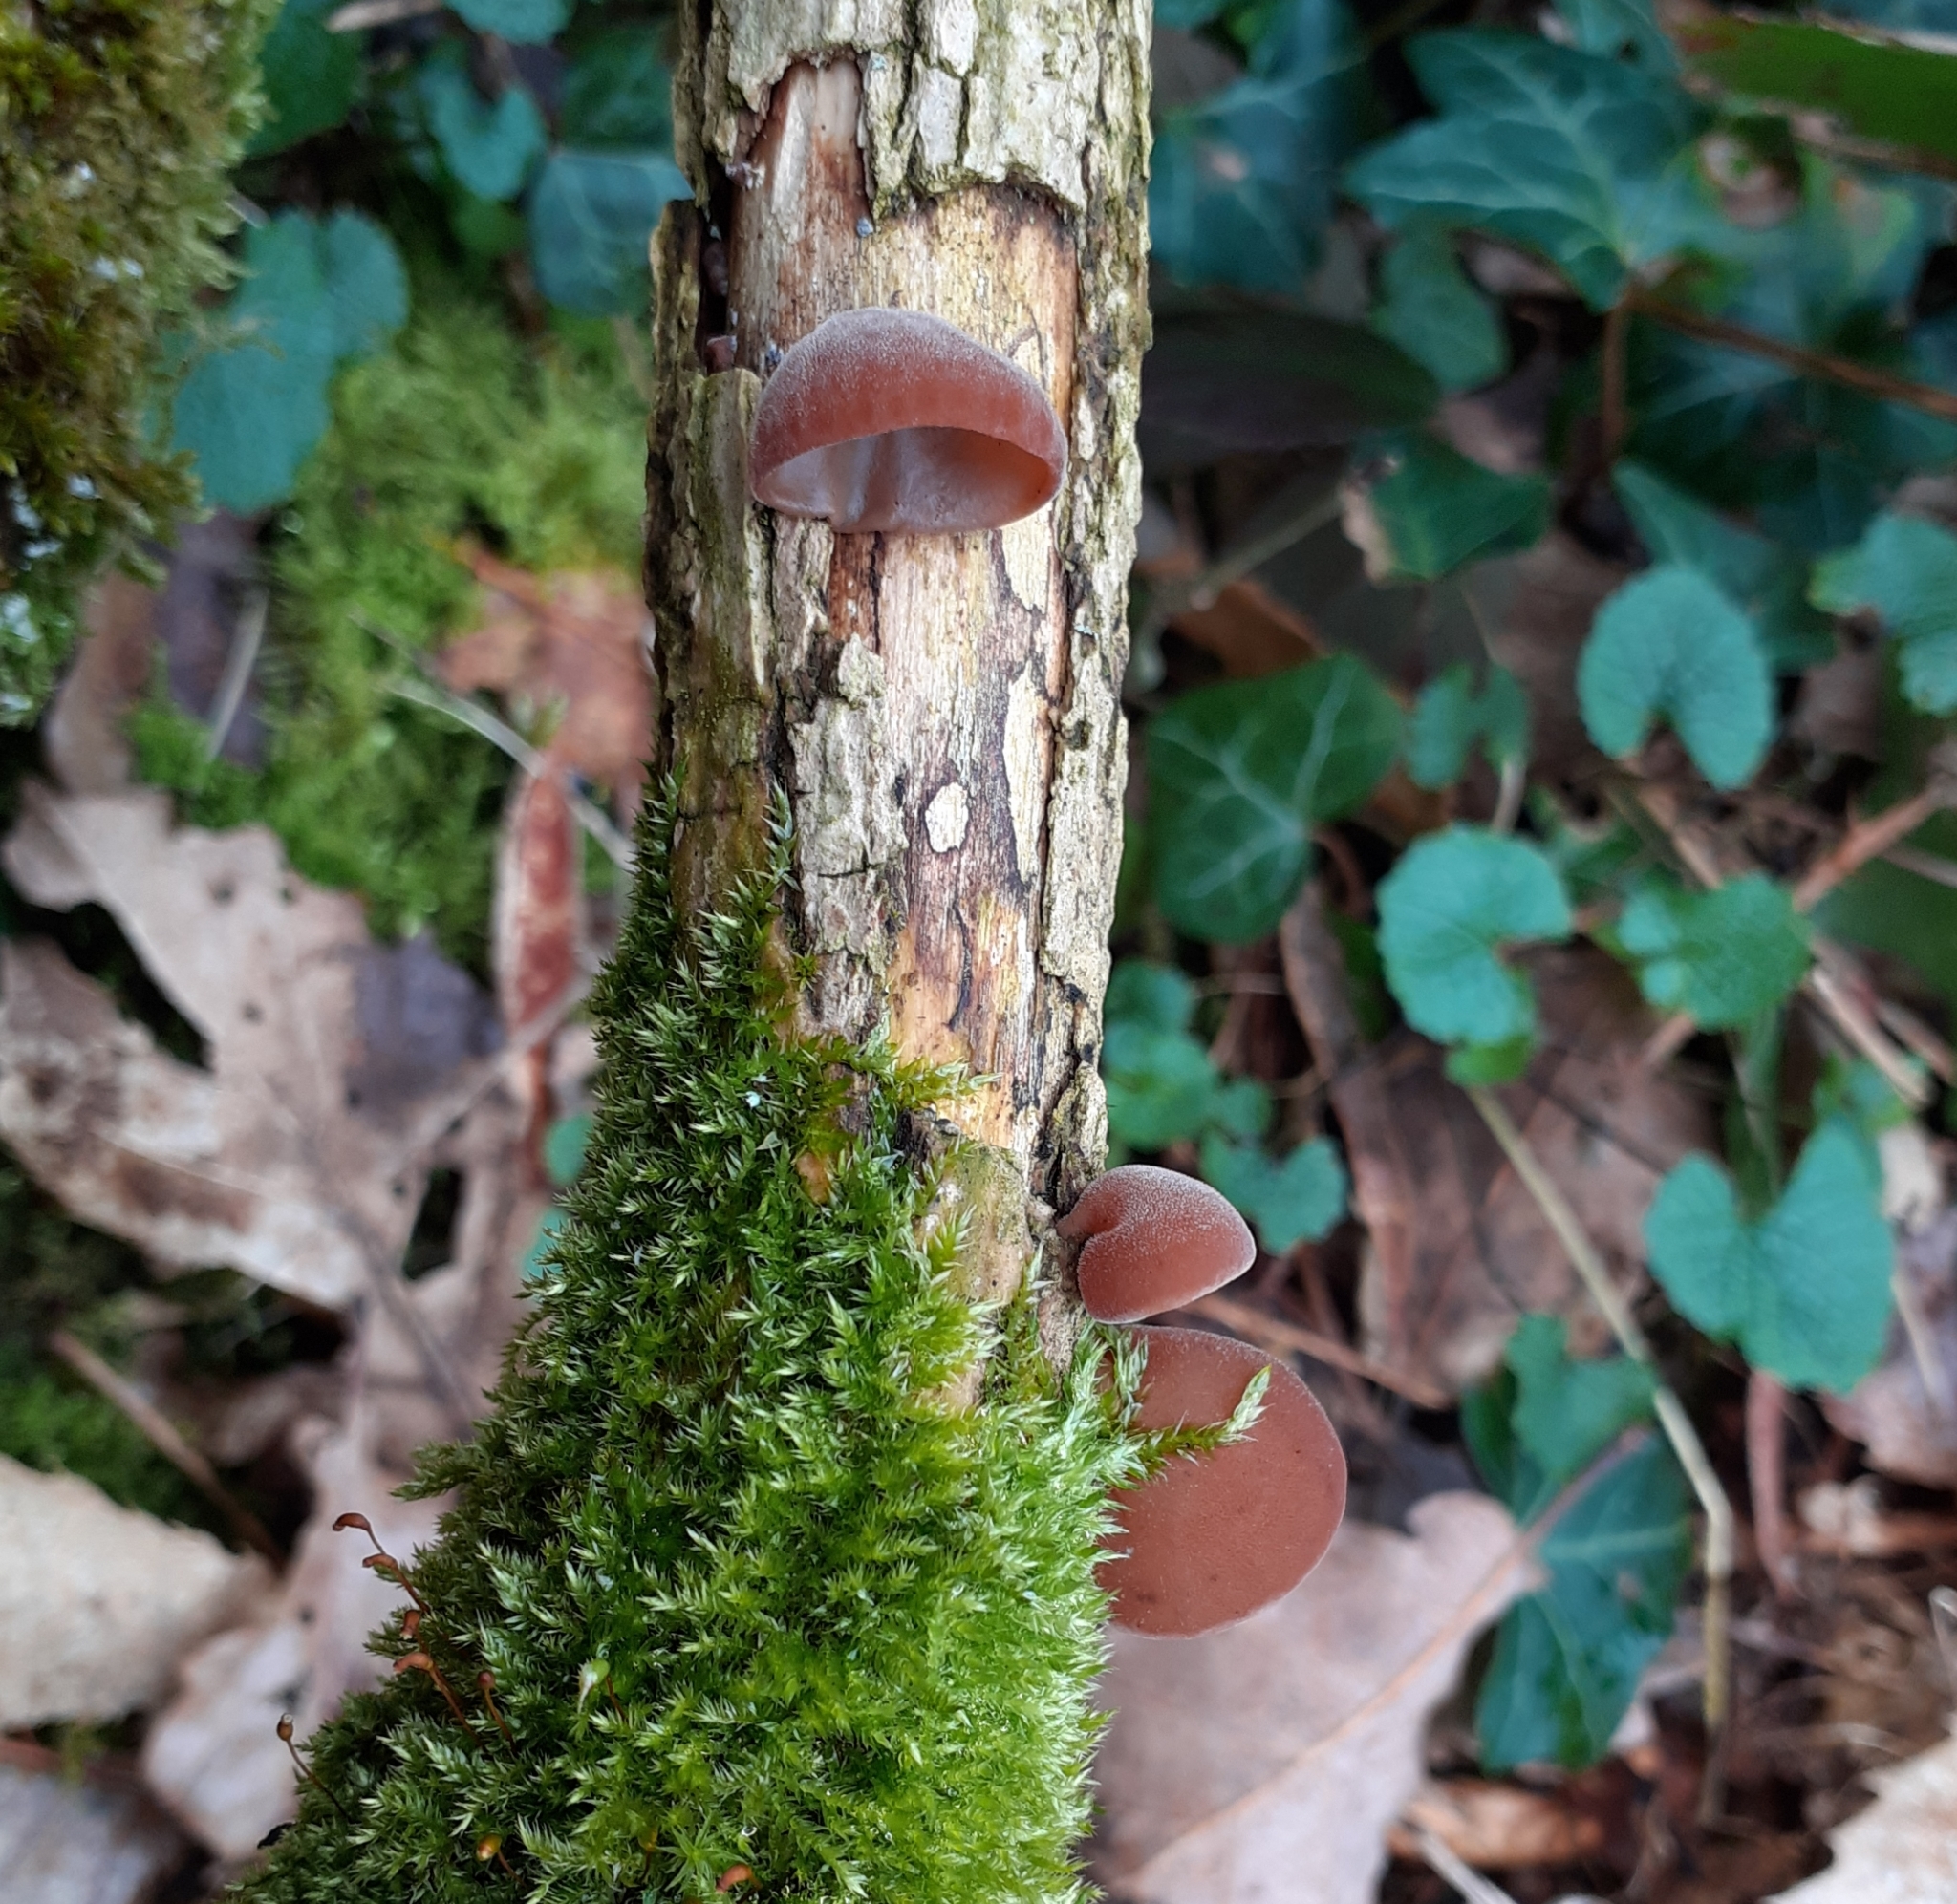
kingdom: Fungi
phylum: Basidiomycota
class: Agaricomycetes
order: Auriculariales
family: Auriculariaceae
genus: Auricularia
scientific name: Auricularia auricula-judae
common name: Jelly ear
